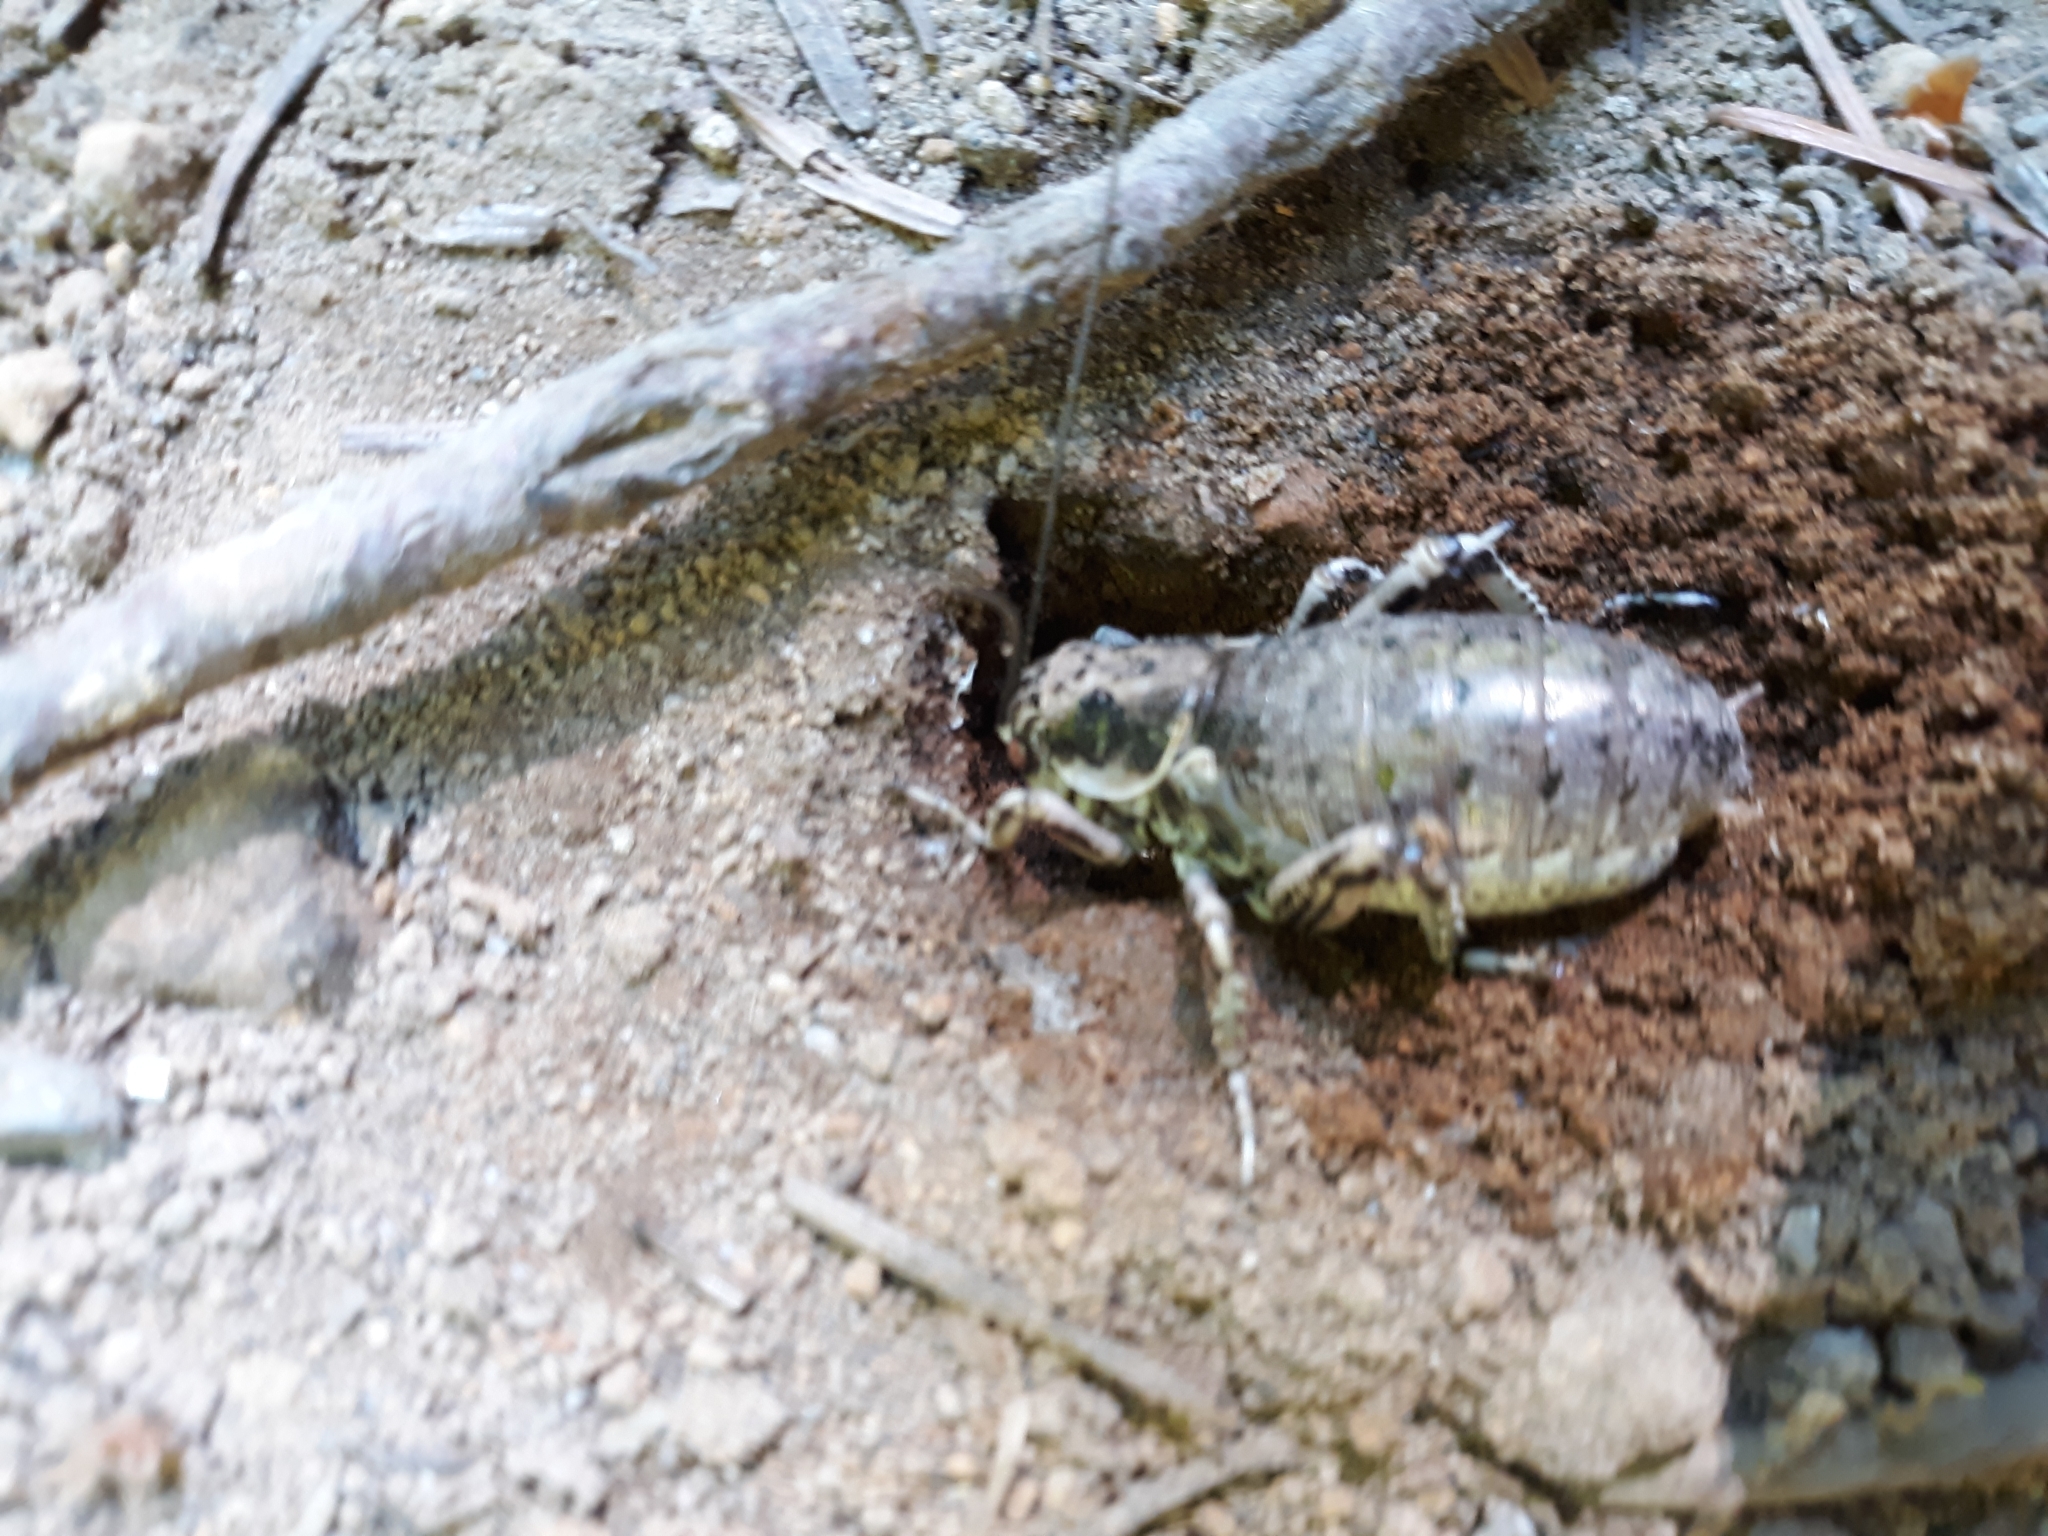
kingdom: Animalia
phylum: Arthropoda
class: Insecta
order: Orthoptera
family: Prophalangopsidae
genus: Cyphoderris
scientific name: Cyphoderris monstrosa
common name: Great grig
